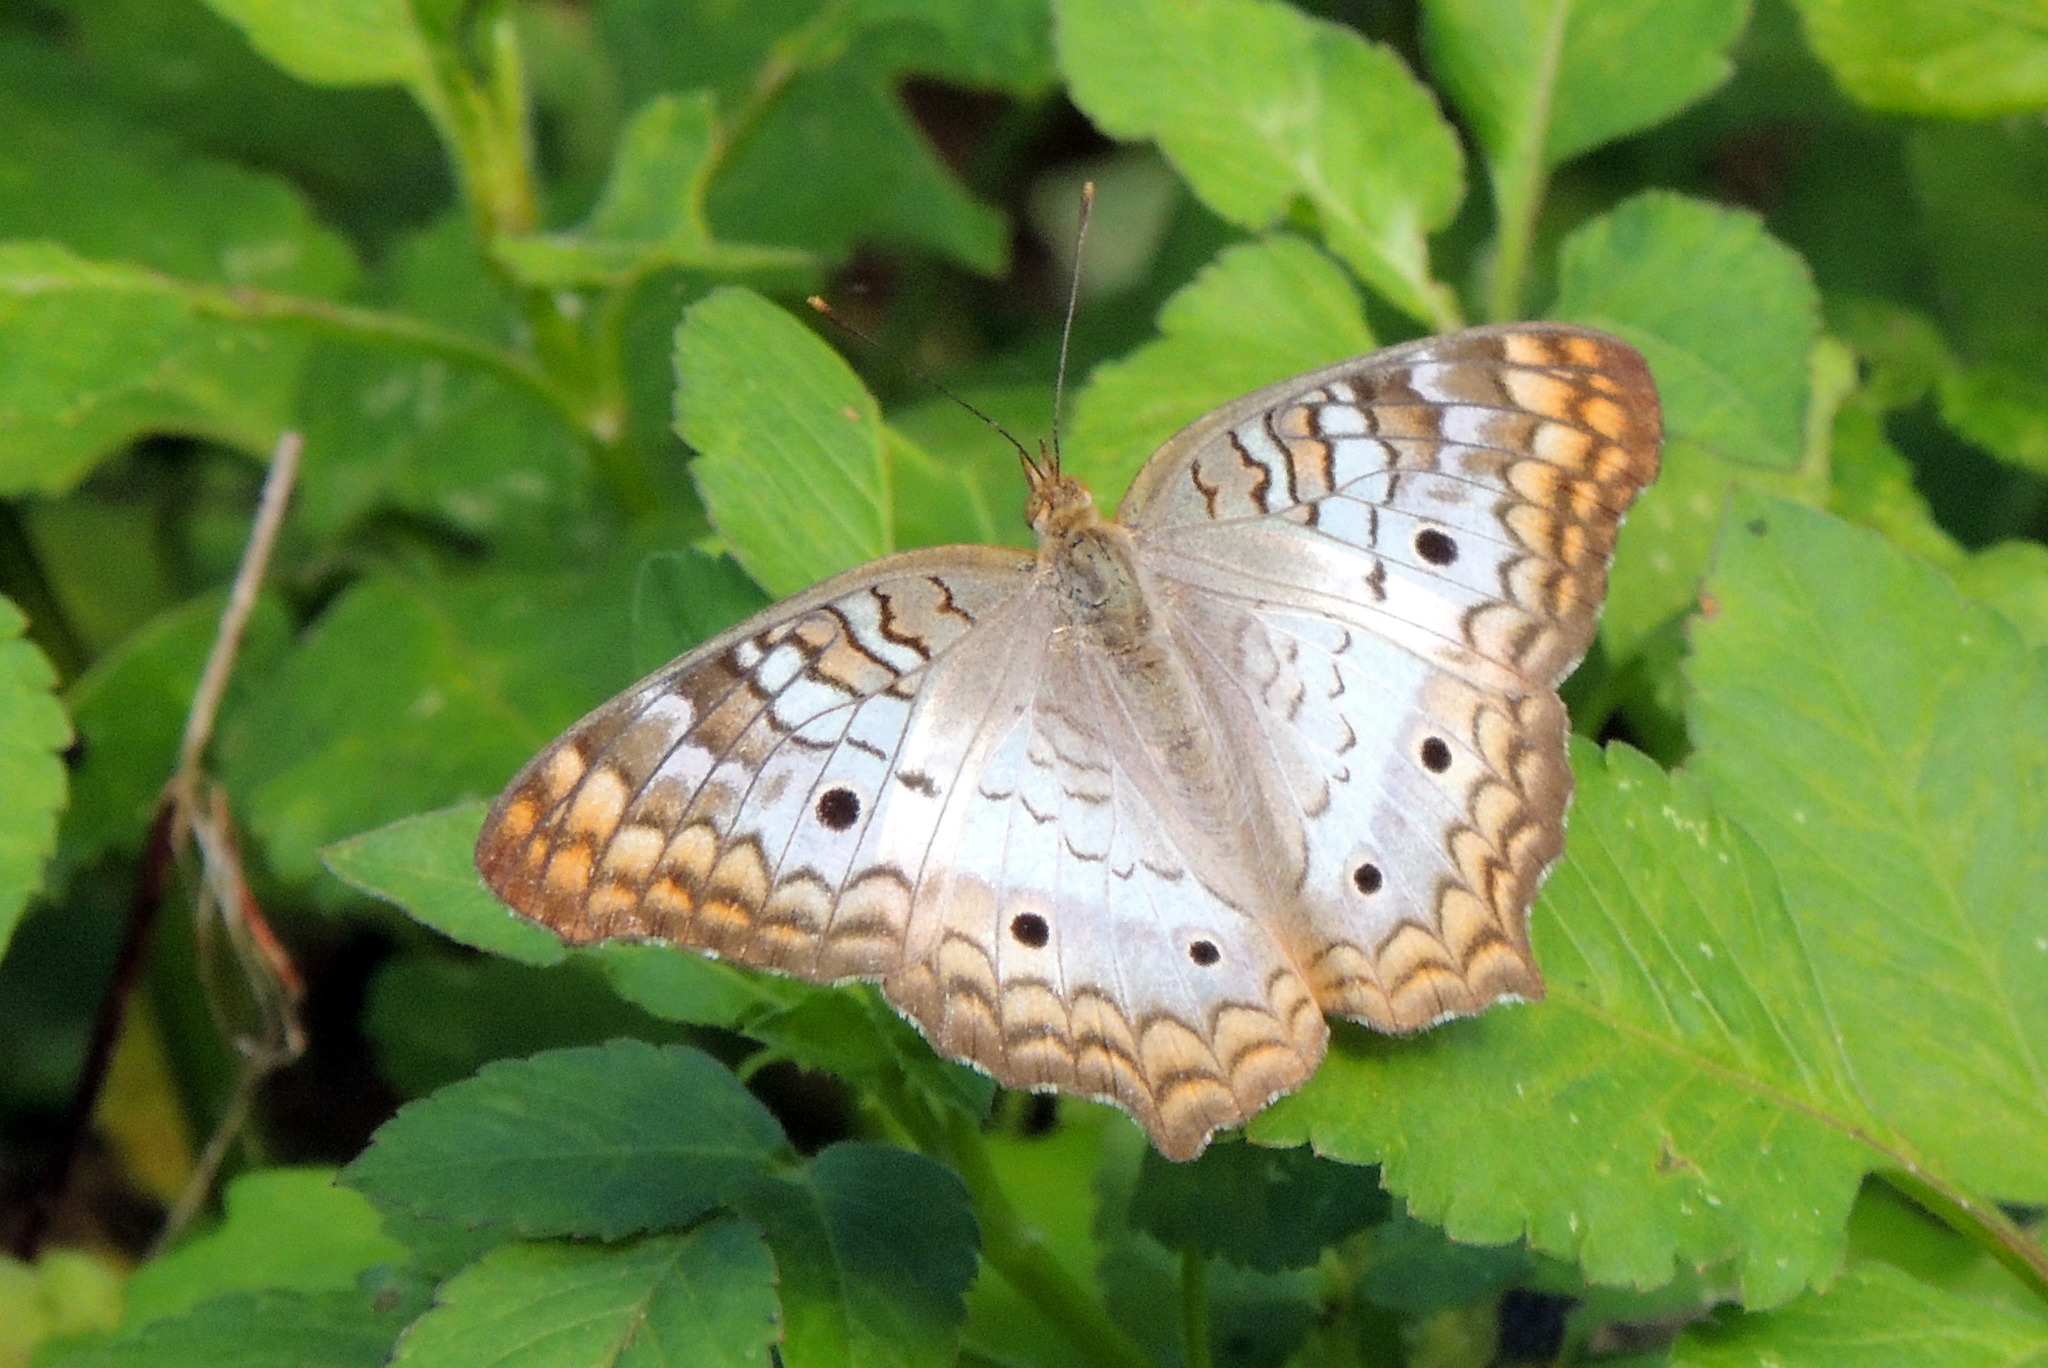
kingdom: Animalia
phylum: Arthropoda
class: Insecta
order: Lepidoptera
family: Nymphalidae
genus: Anartia
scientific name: Anartia jatrophae
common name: White peacock
